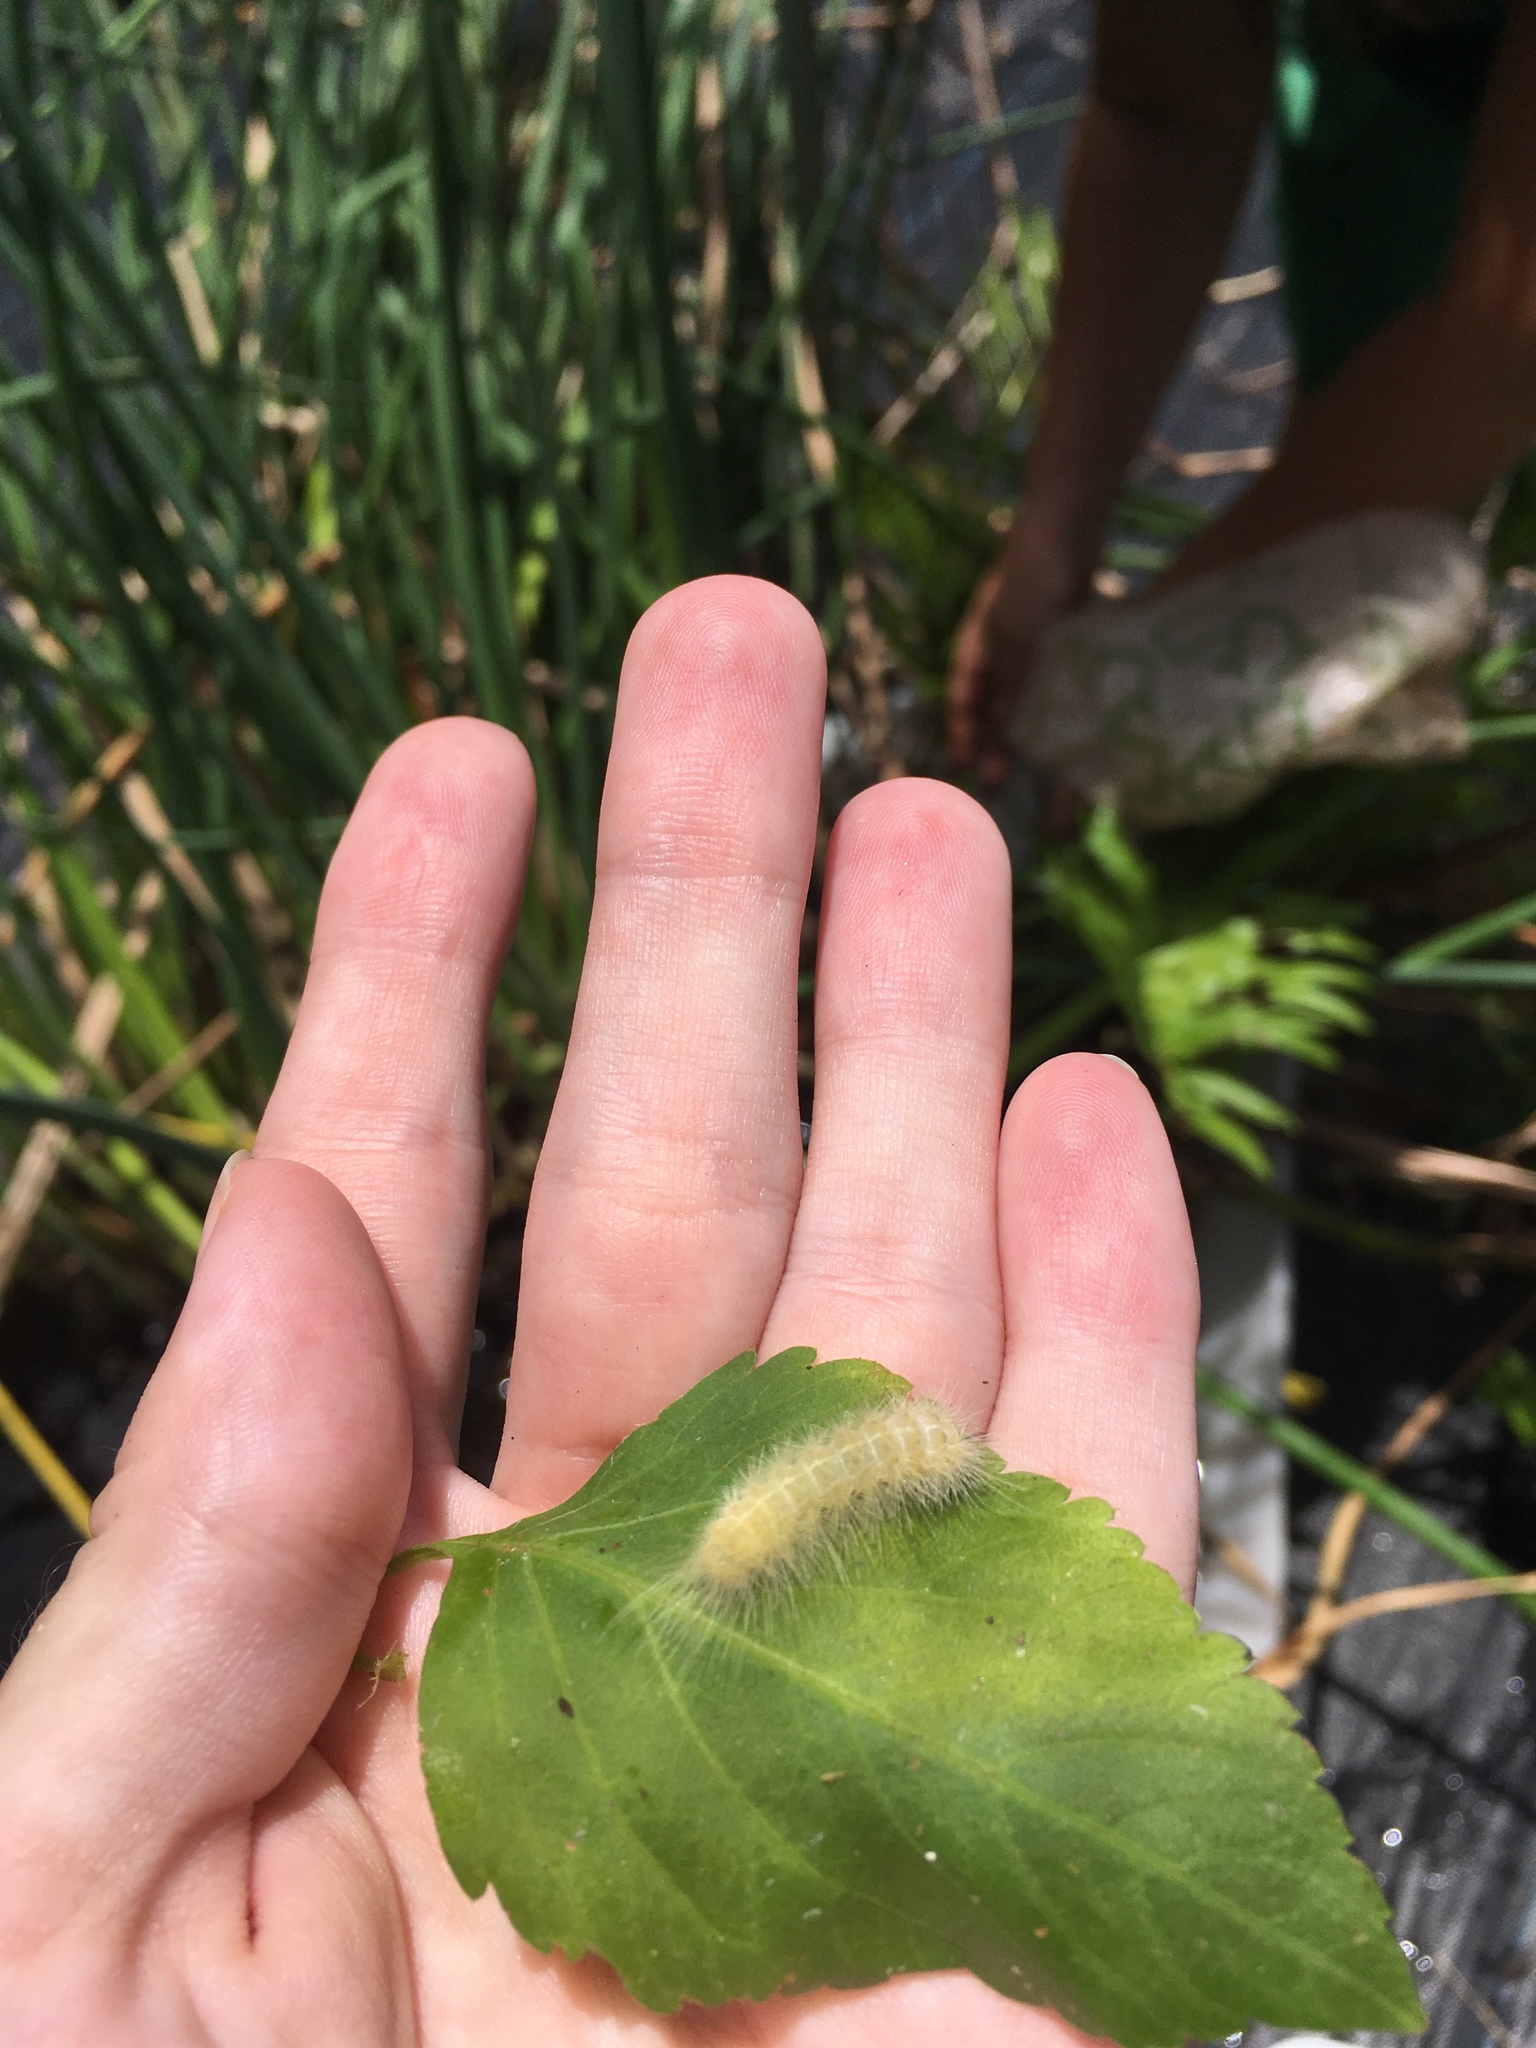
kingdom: Animalia
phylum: Arthropoda
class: Insecta
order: Lepidoptera
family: Erebidae
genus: Spilosoma
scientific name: Spilosoma virginica
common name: Virginia tiger moth
